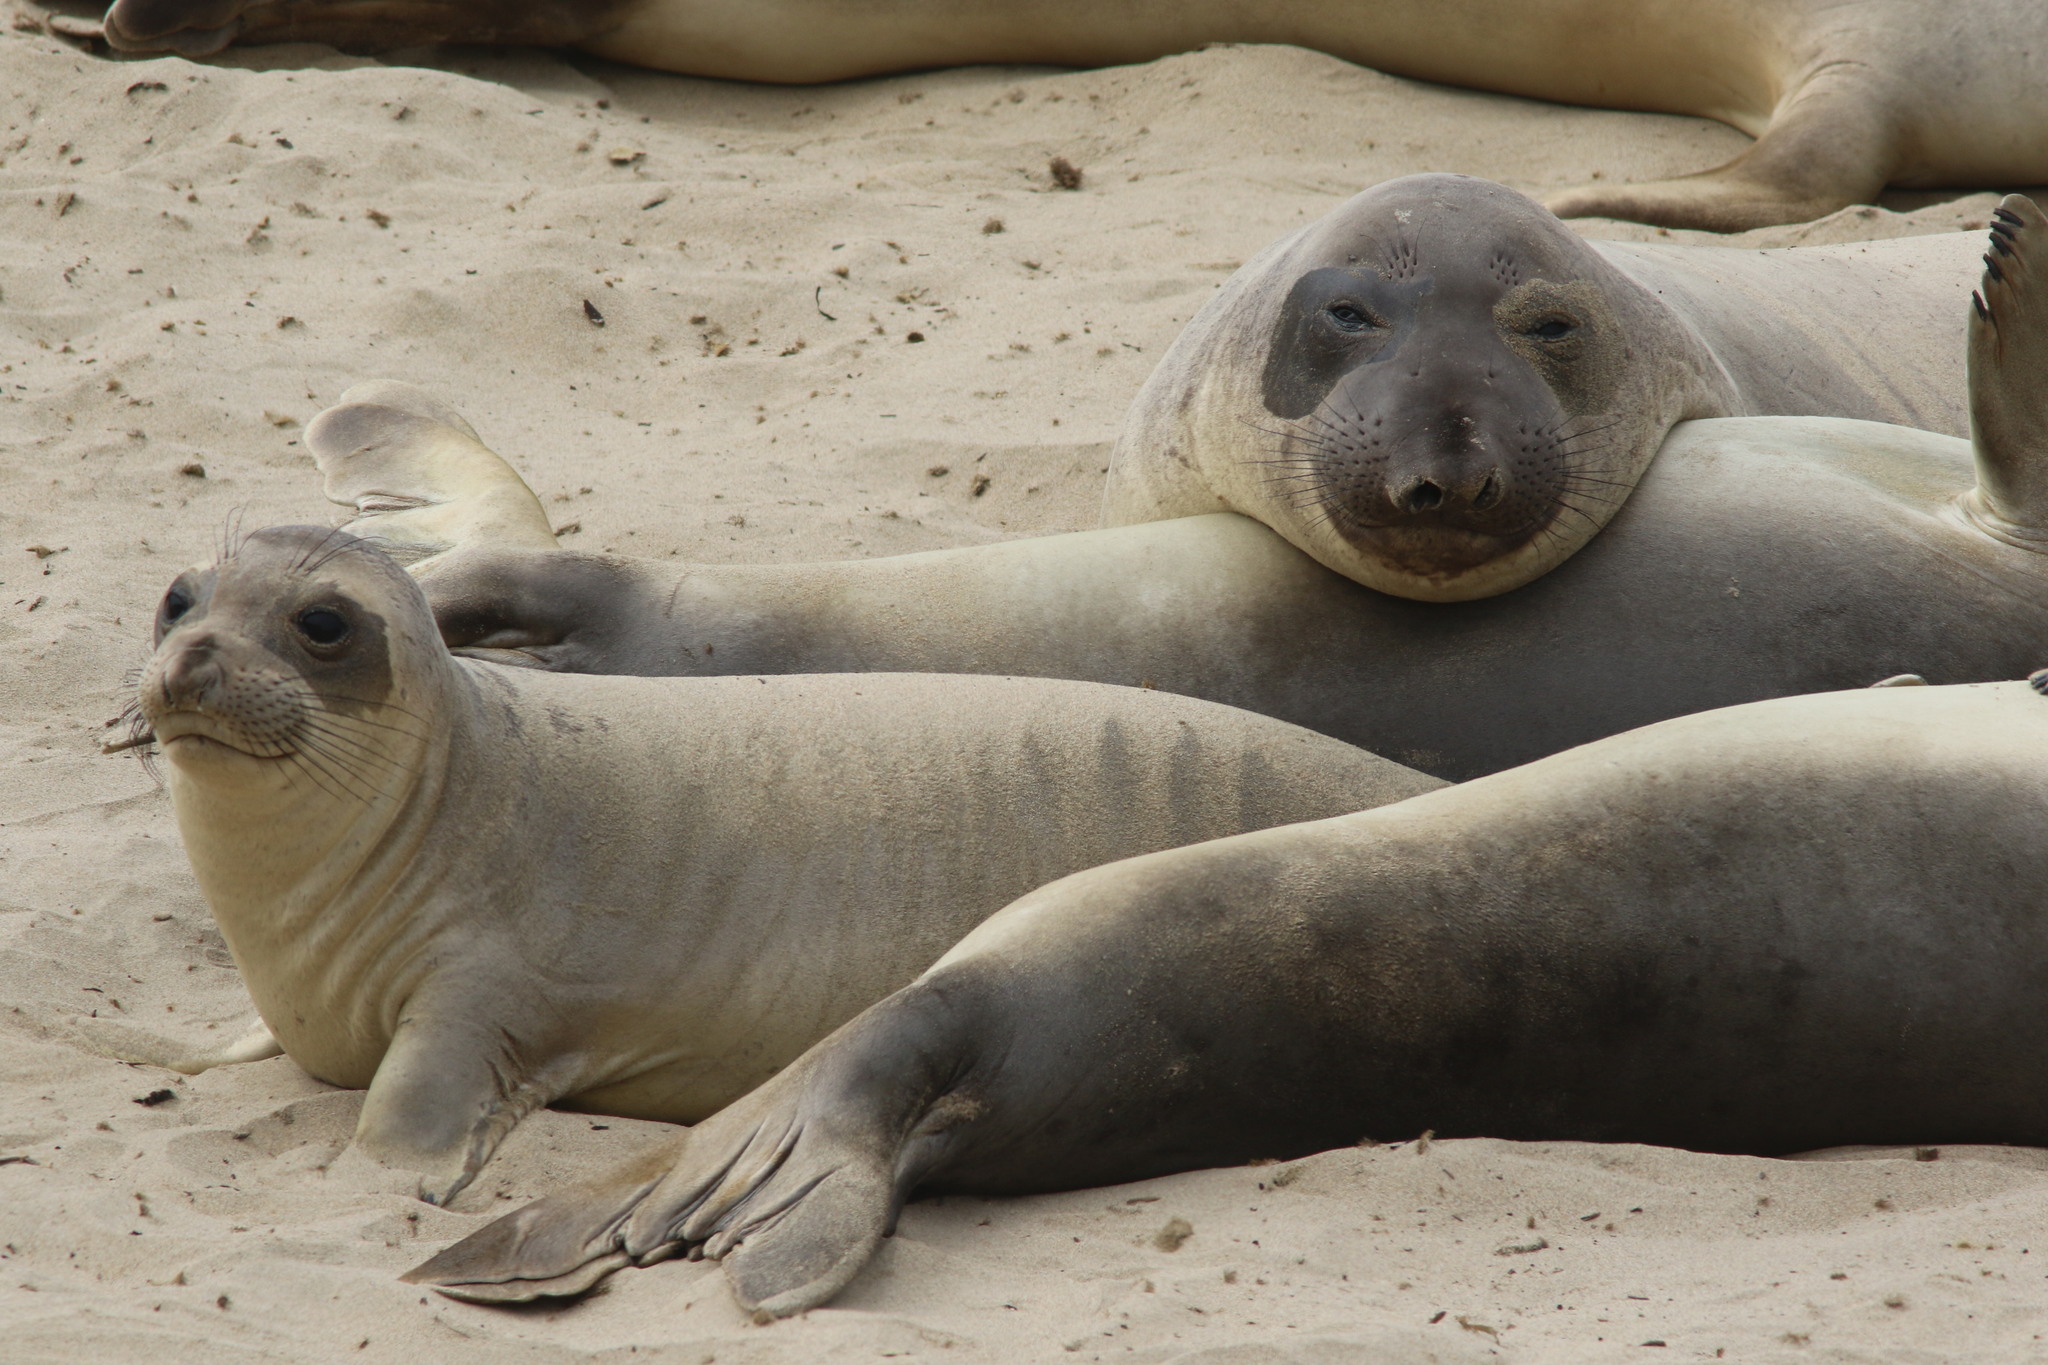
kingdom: Animalia
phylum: Chordata
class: Mammalia
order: Carnivora
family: Phocidae
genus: Mirounga
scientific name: Mirounga angustirostris
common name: Northern elephant seal
